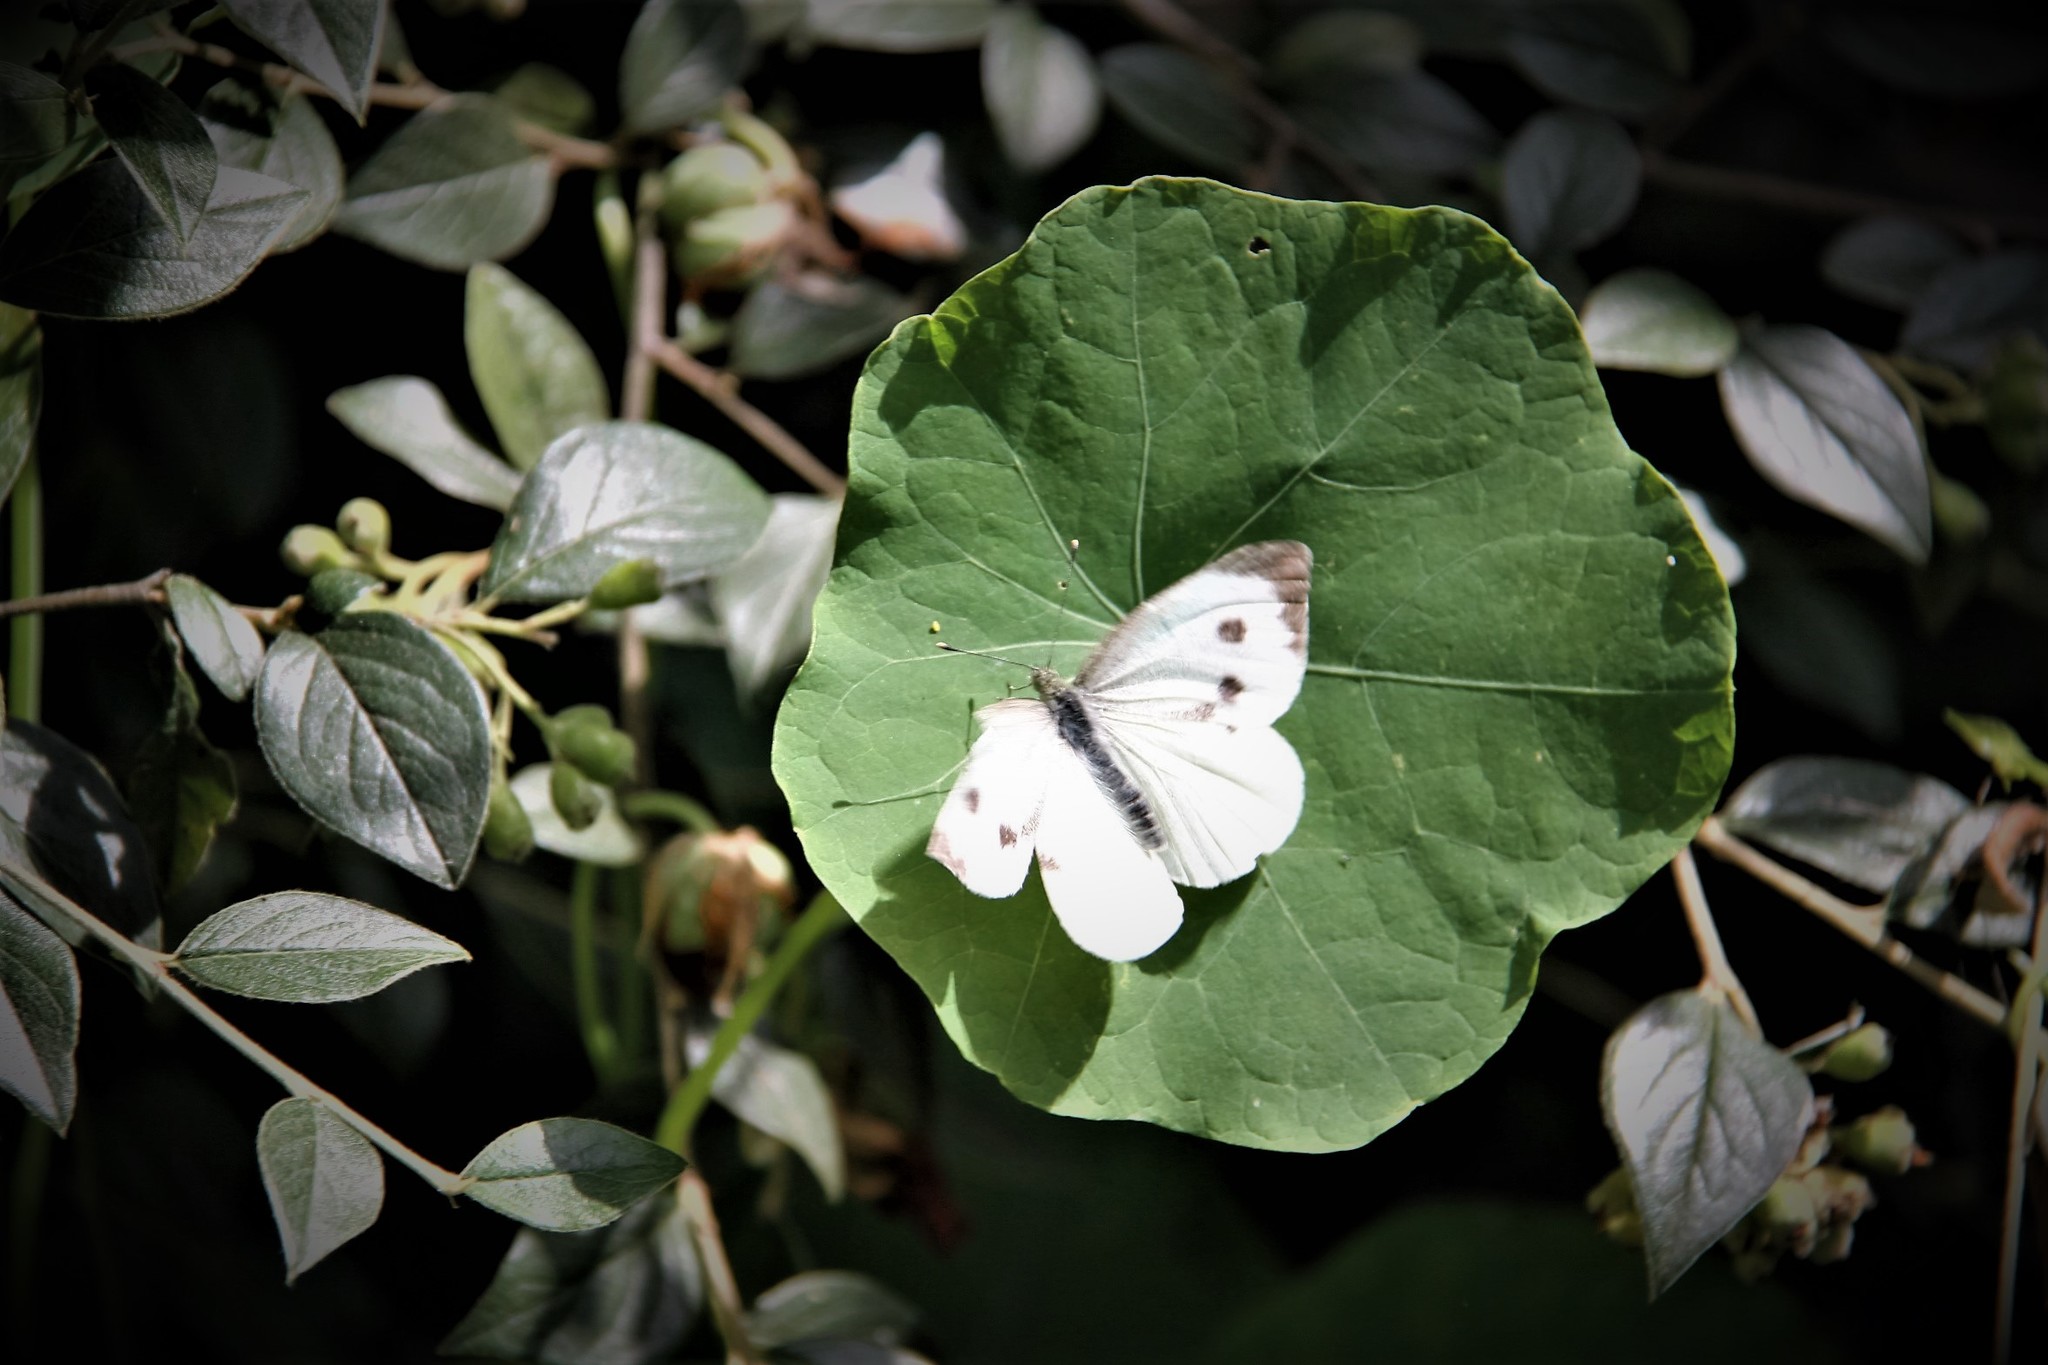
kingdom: Animalia
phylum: Arthropoda
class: Insecta
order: Lepidoptera
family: Pieridae
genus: Pieris
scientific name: Pieris brassicae
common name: Large white
